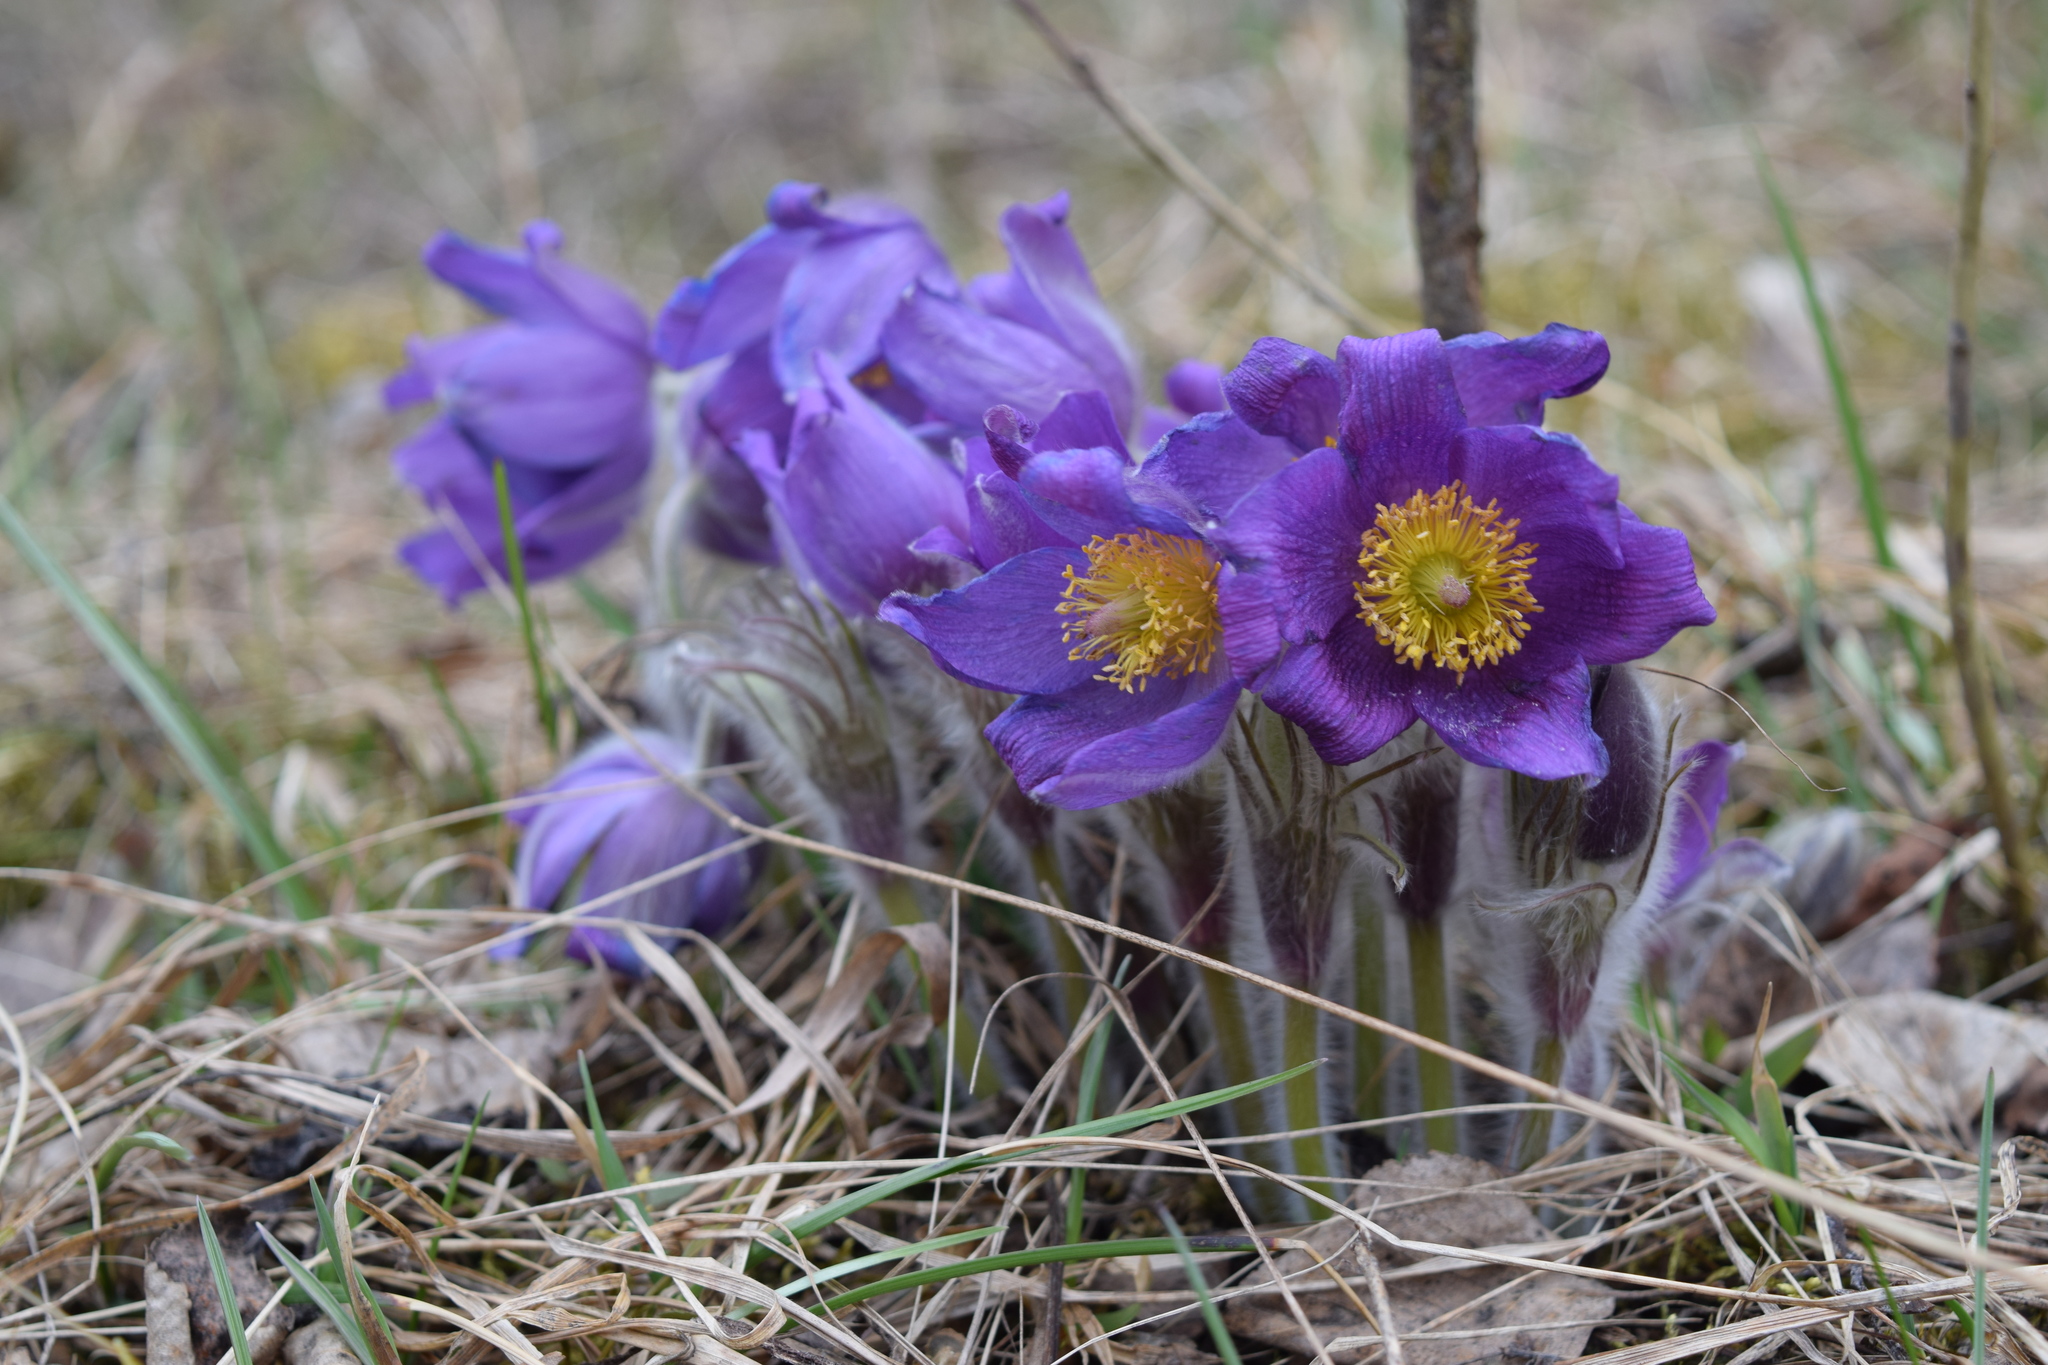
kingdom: Plantae
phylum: Tracheophyta
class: Magnoliopsida
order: Ranunculales
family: Ranunculaceae
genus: Pulsatilla
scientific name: Pulsatilla patens
